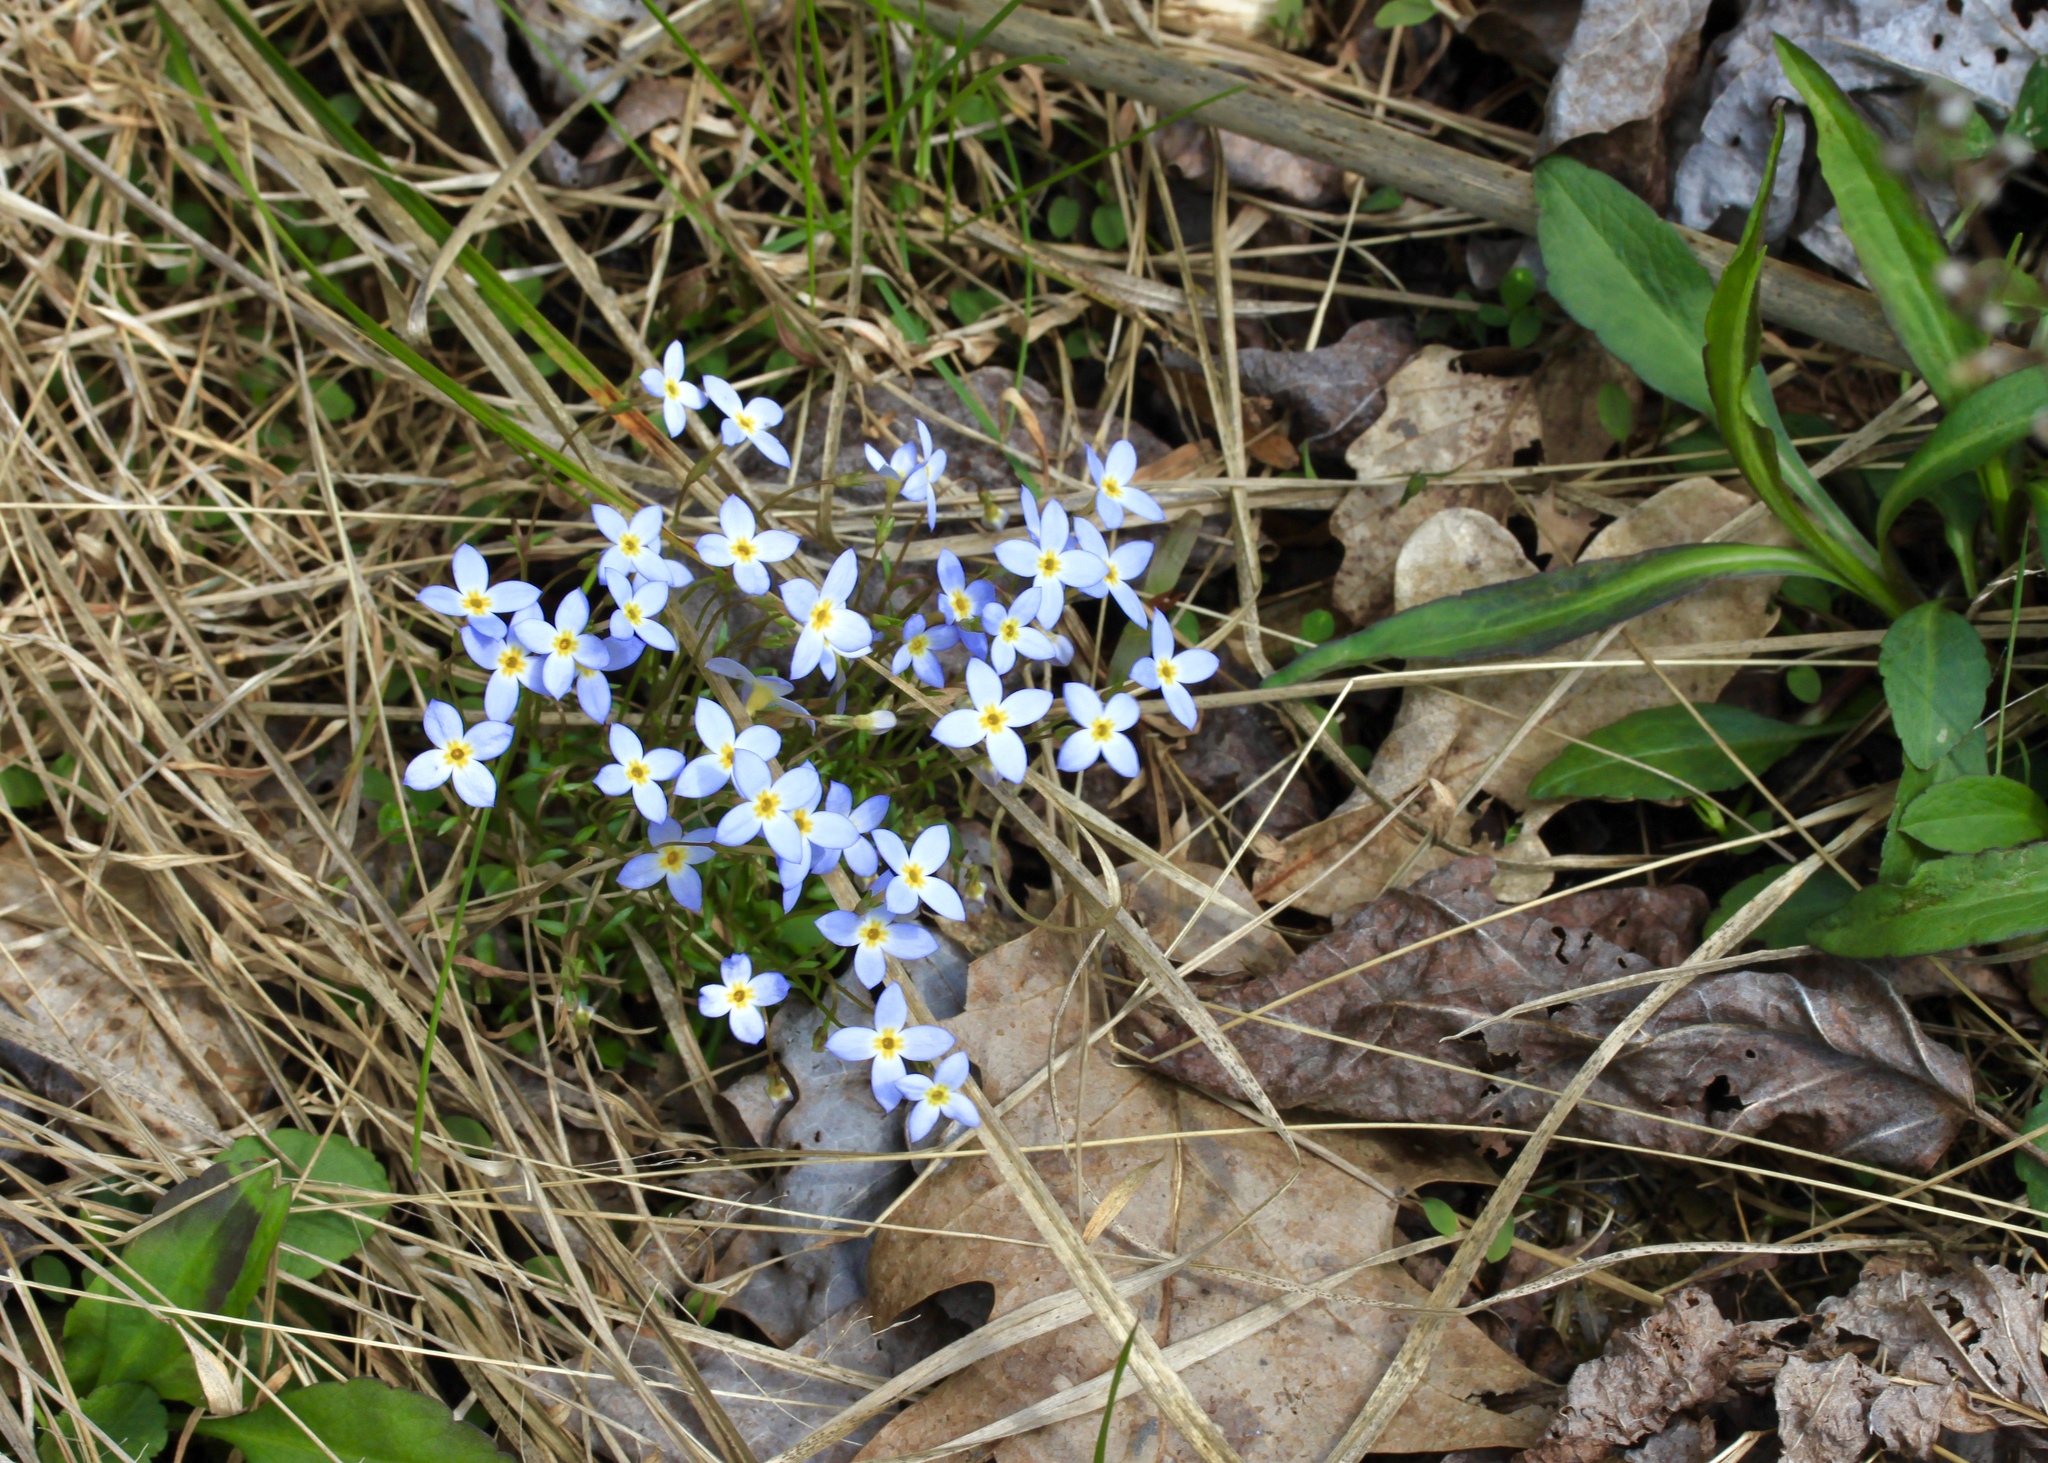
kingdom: Plantae
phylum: Tracheophyta
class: Magnoliopsida
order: Gentianales
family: Rubiaceae
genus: Houstonia
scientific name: Houstonia caerulea
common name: Bluets
